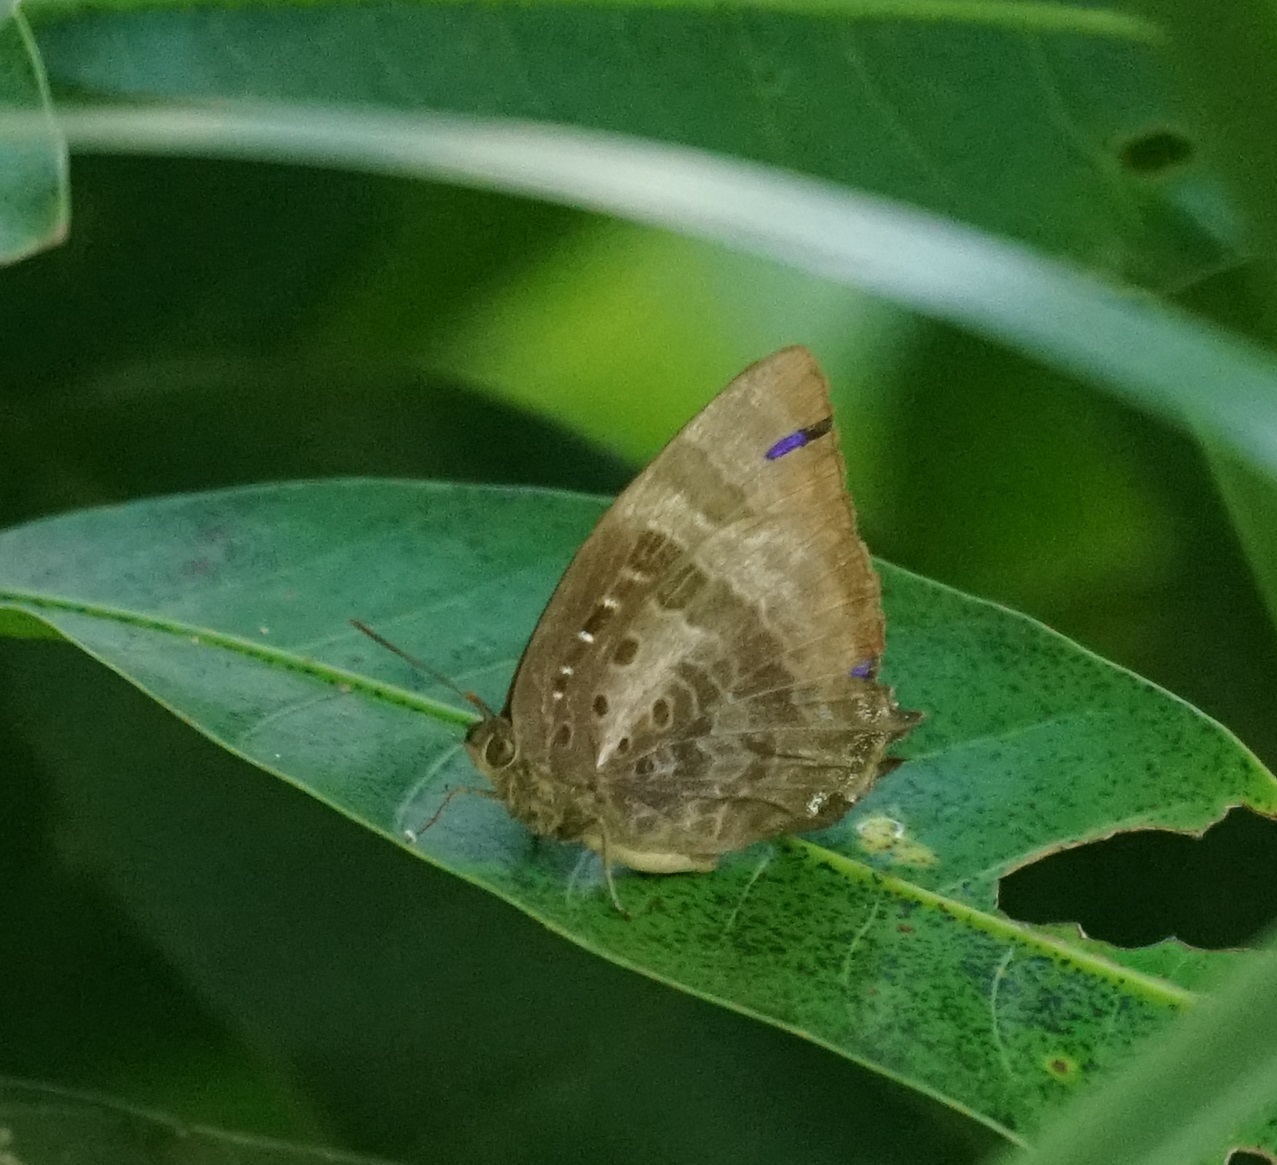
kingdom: Animalia
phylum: Arthropoda
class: Insecta
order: Lepidoptera
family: Lycaenidae
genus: Arhopala
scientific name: Arhopala micale
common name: Shining oak-blue
